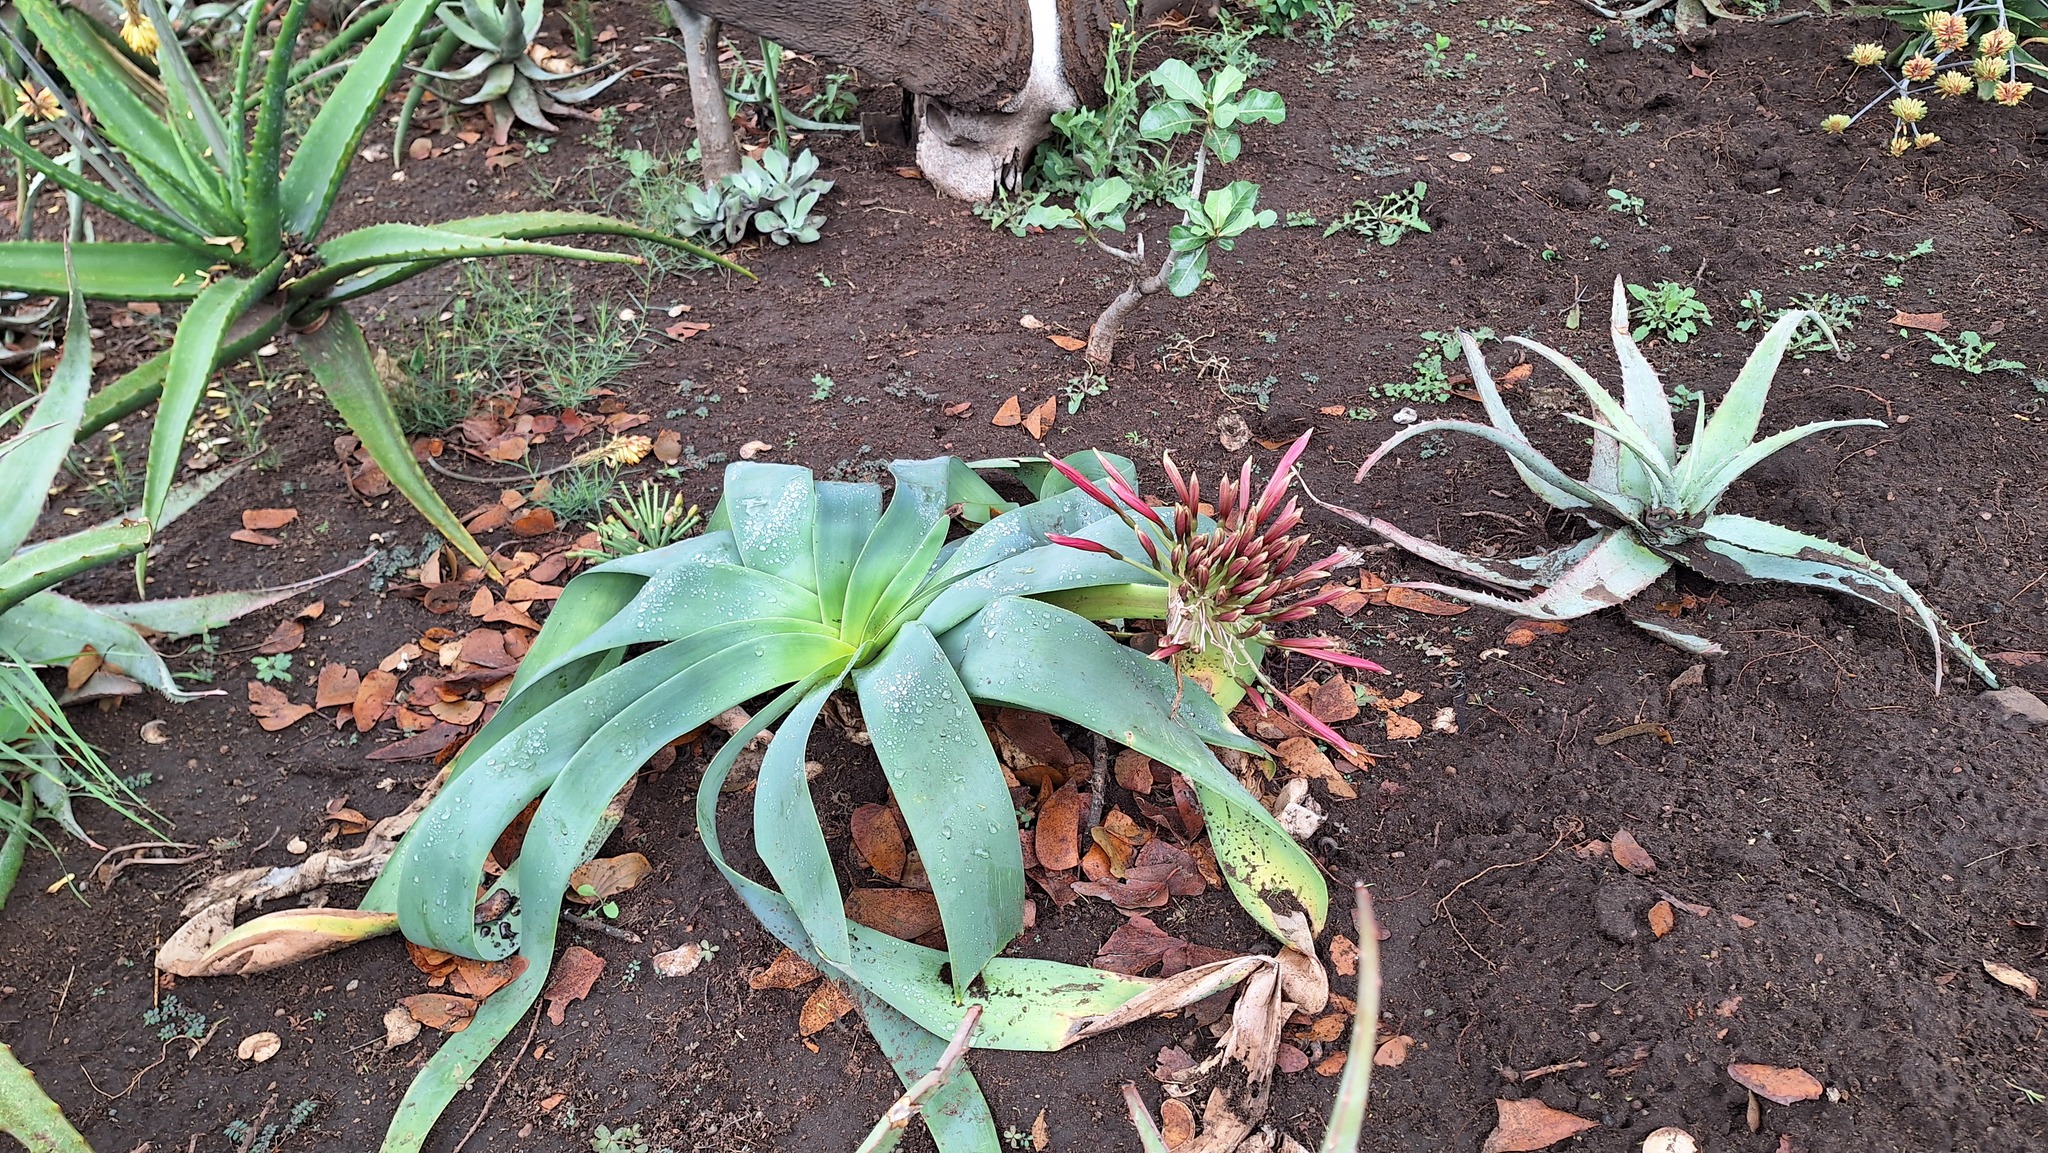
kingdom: Plantae
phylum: Tracheophyta
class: Liliopsida
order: Asparagales
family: Amaryllidaceae
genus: Ammocharis
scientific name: Ammocharis coranica
